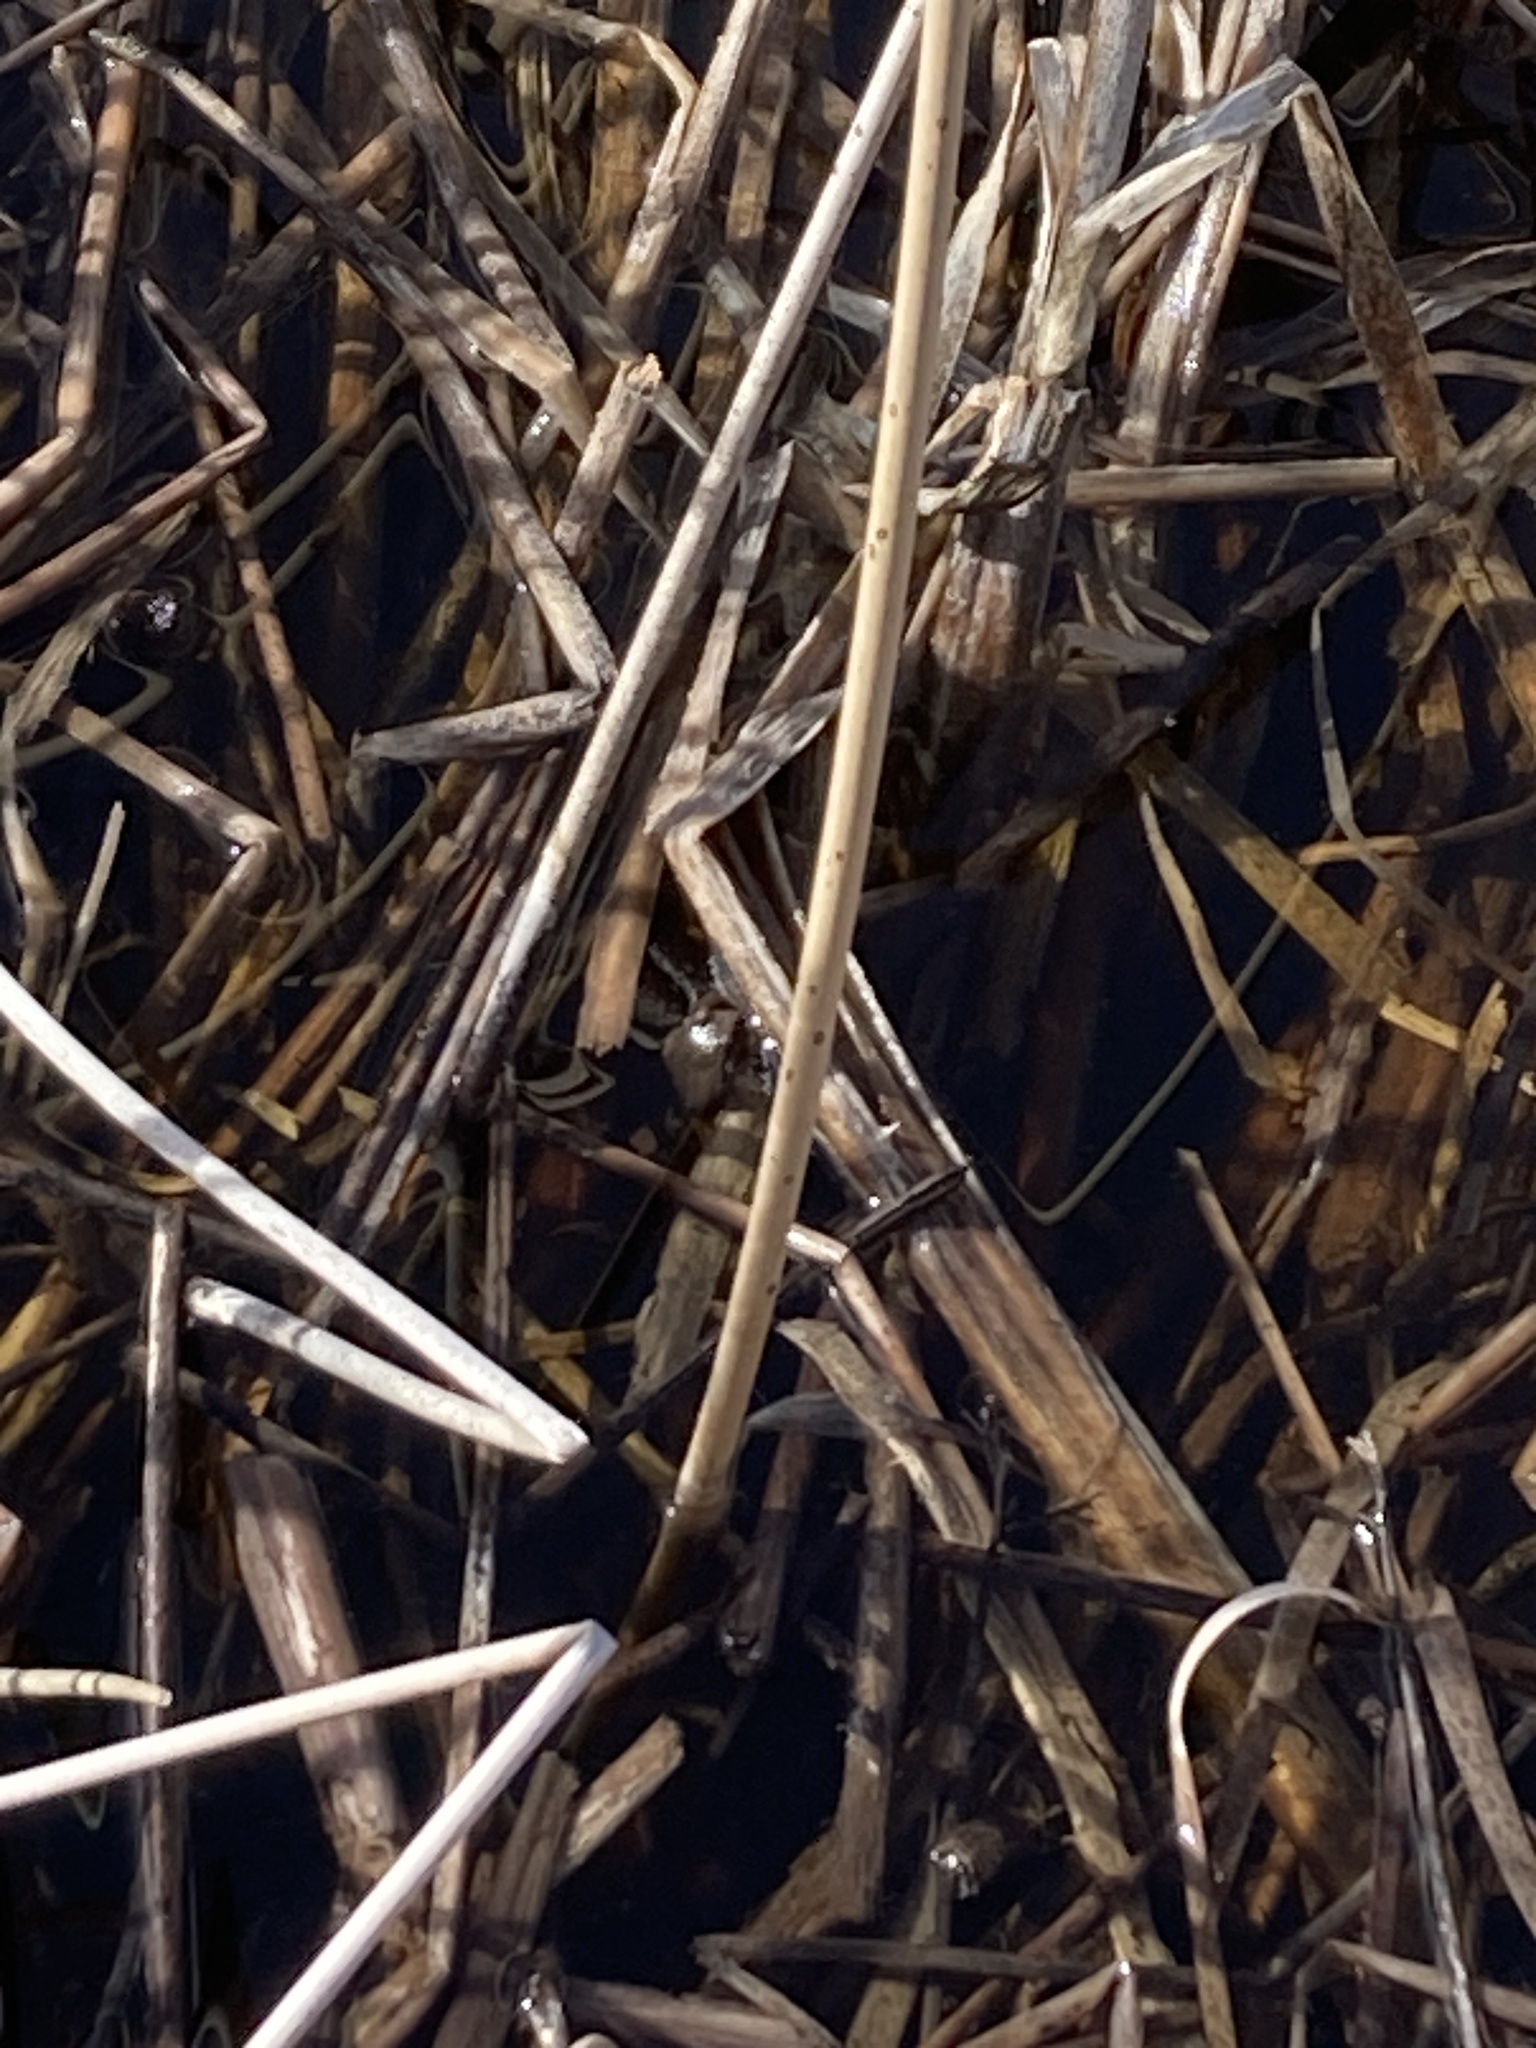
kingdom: Animalia
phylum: Chordata
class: Amphibia
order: Anura
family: Hylidae
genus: Pseudacris
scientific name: Pseudacris regilla
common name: Pacific chorus frog
